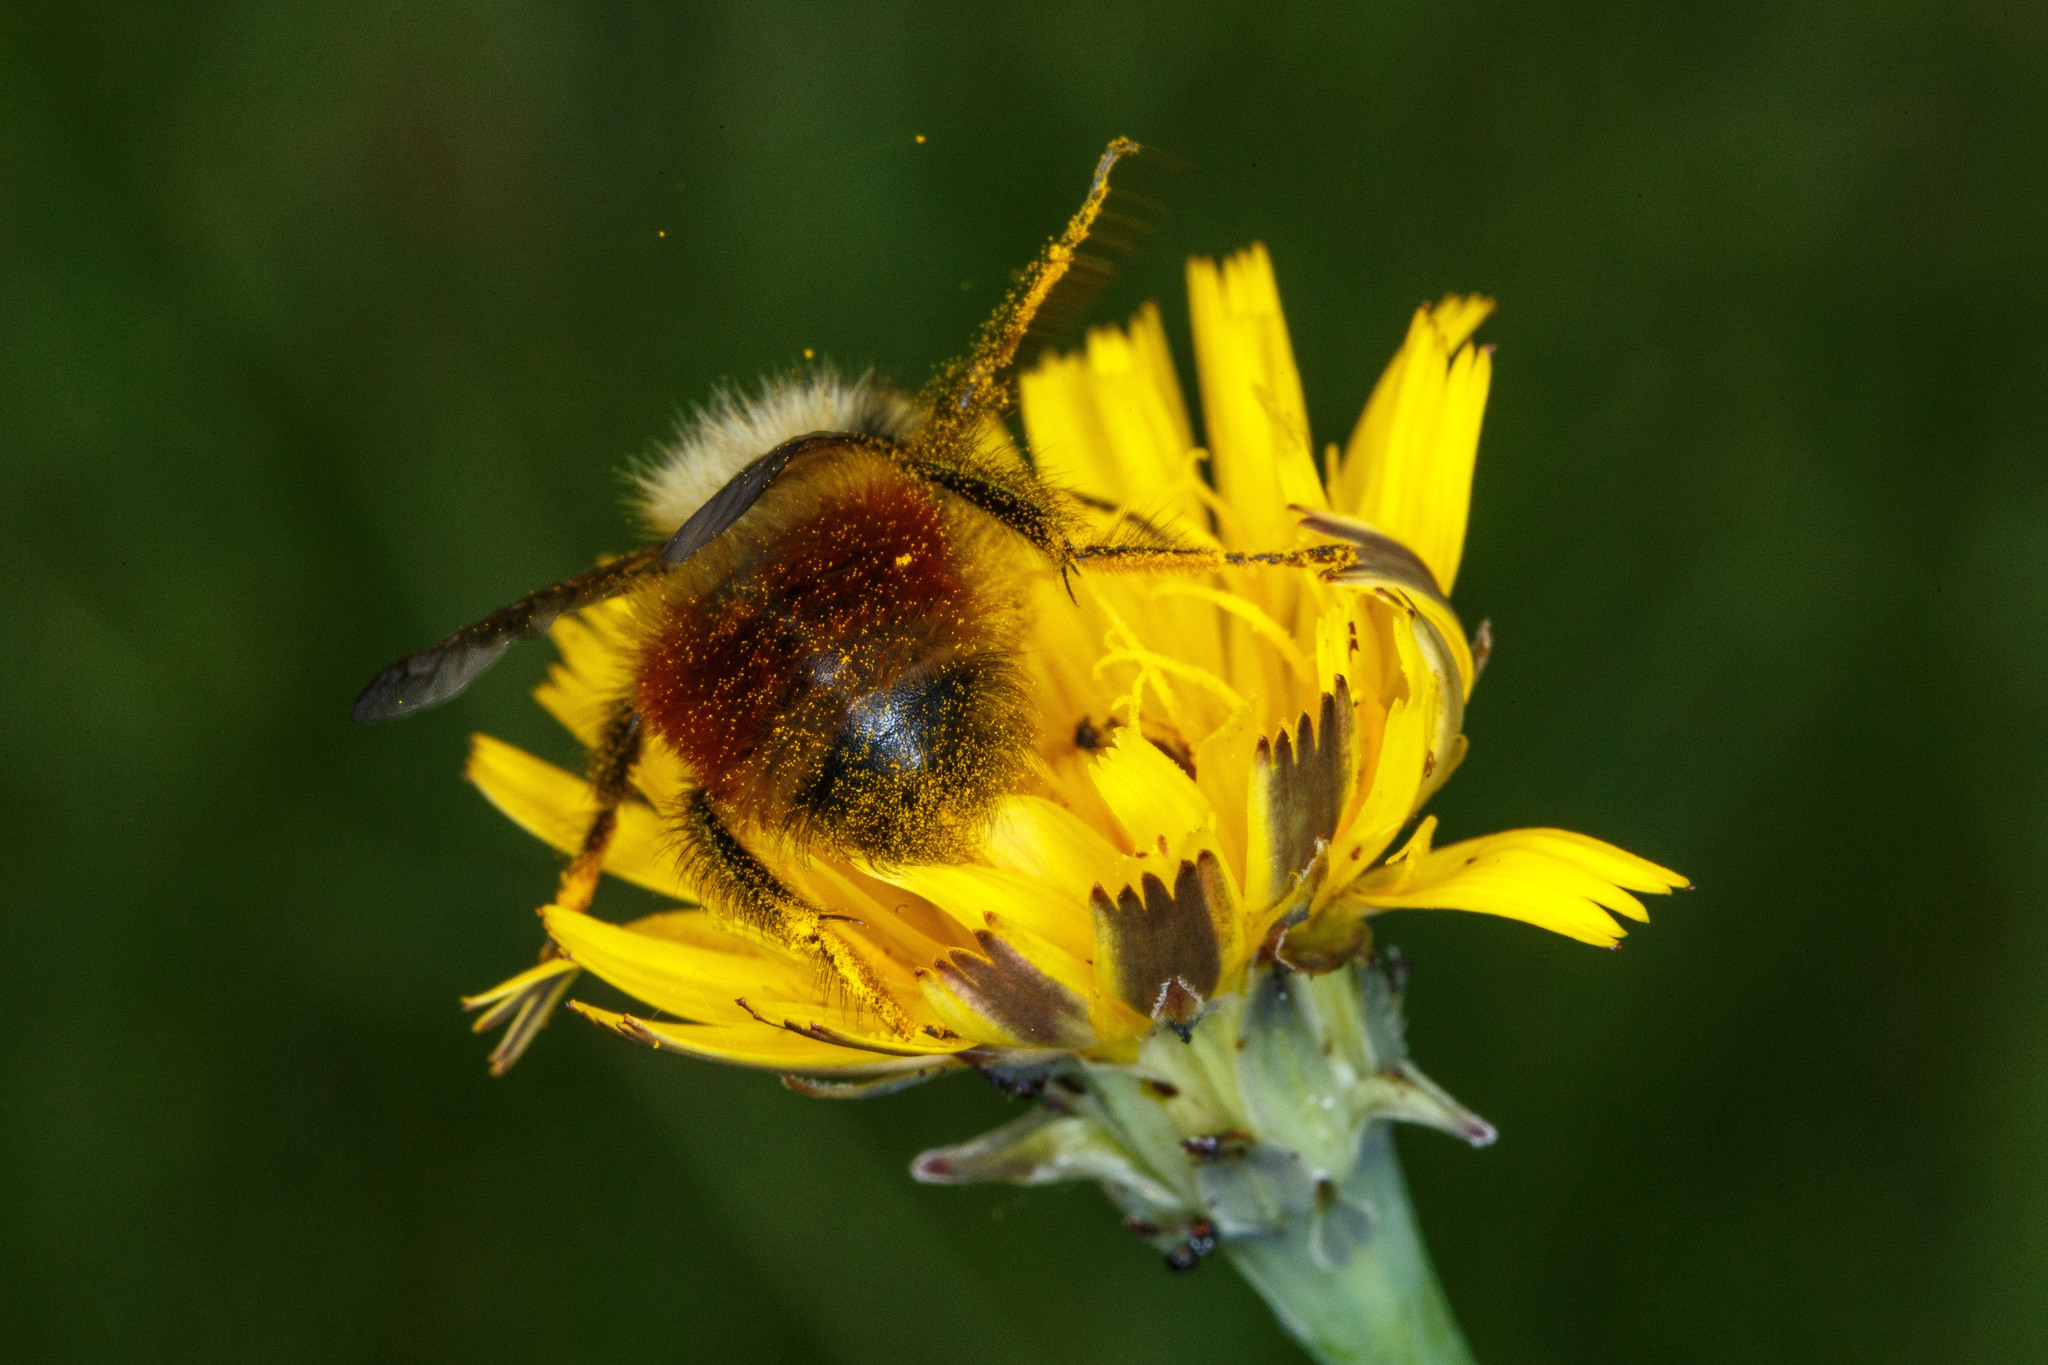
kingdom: Animalia
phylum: Arthropoda
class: Insecta
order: Hymenoptera
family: Apidae
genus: Bombus
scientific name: Bombus melanopygus
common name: Black tail bumble bee
